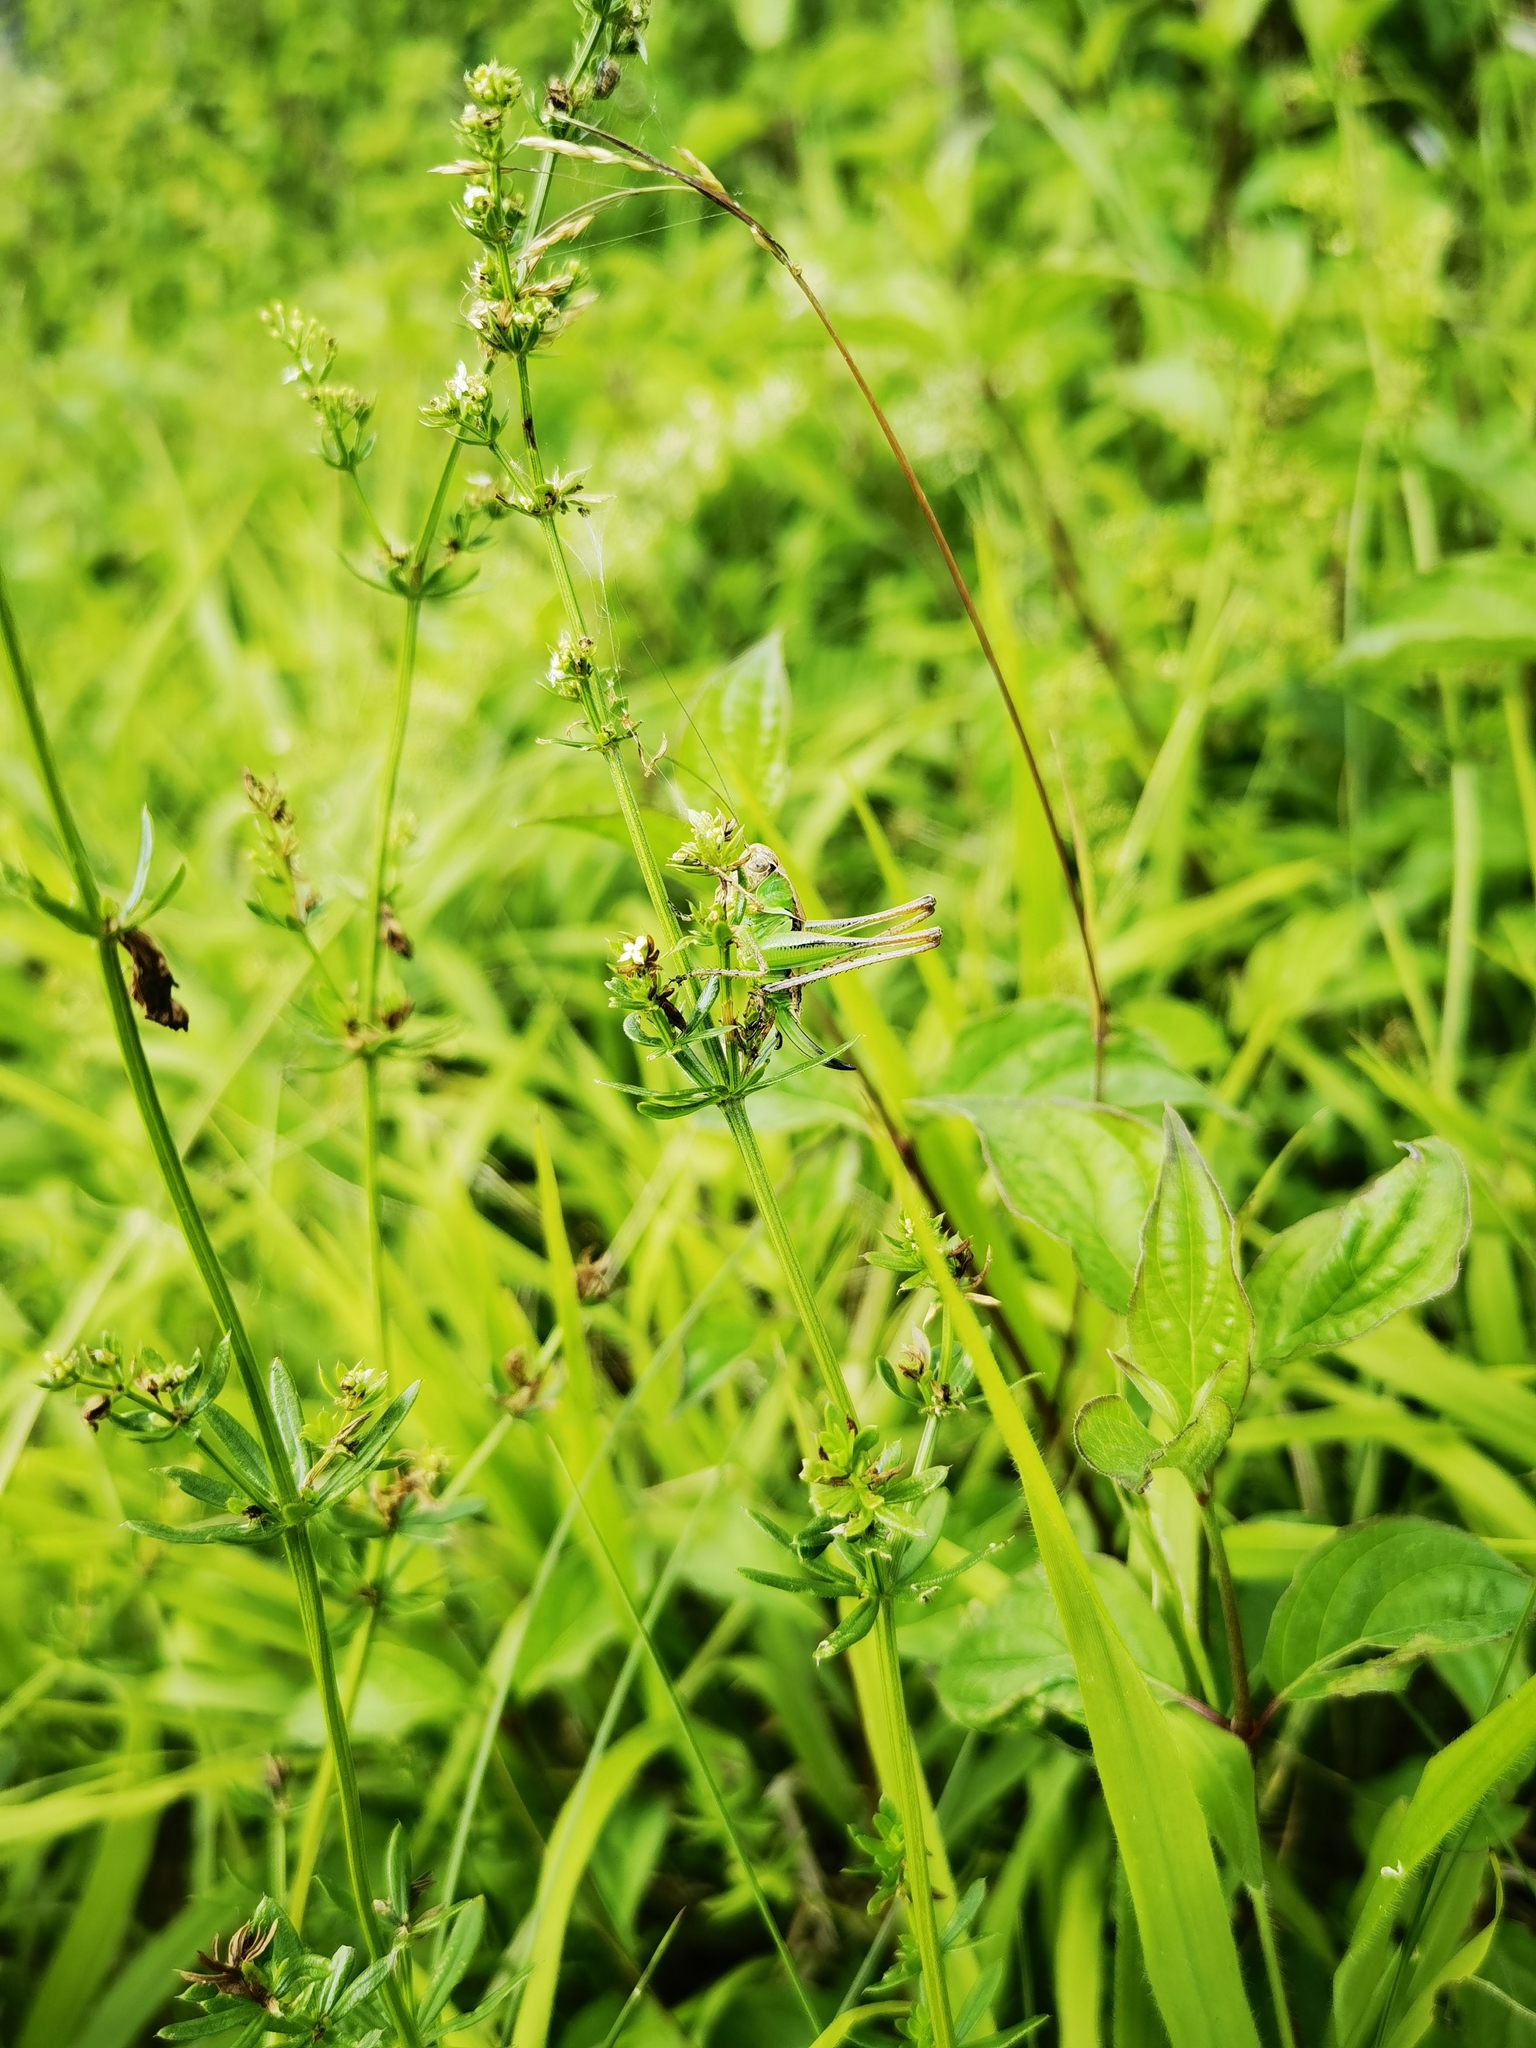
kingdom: Animalia
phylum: Arthropoda
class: Insecta
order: Orthoptera
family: Tettigoniidae
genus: Platycleis
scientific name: Platycleis albopunctata
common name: Grey bush-cricket
